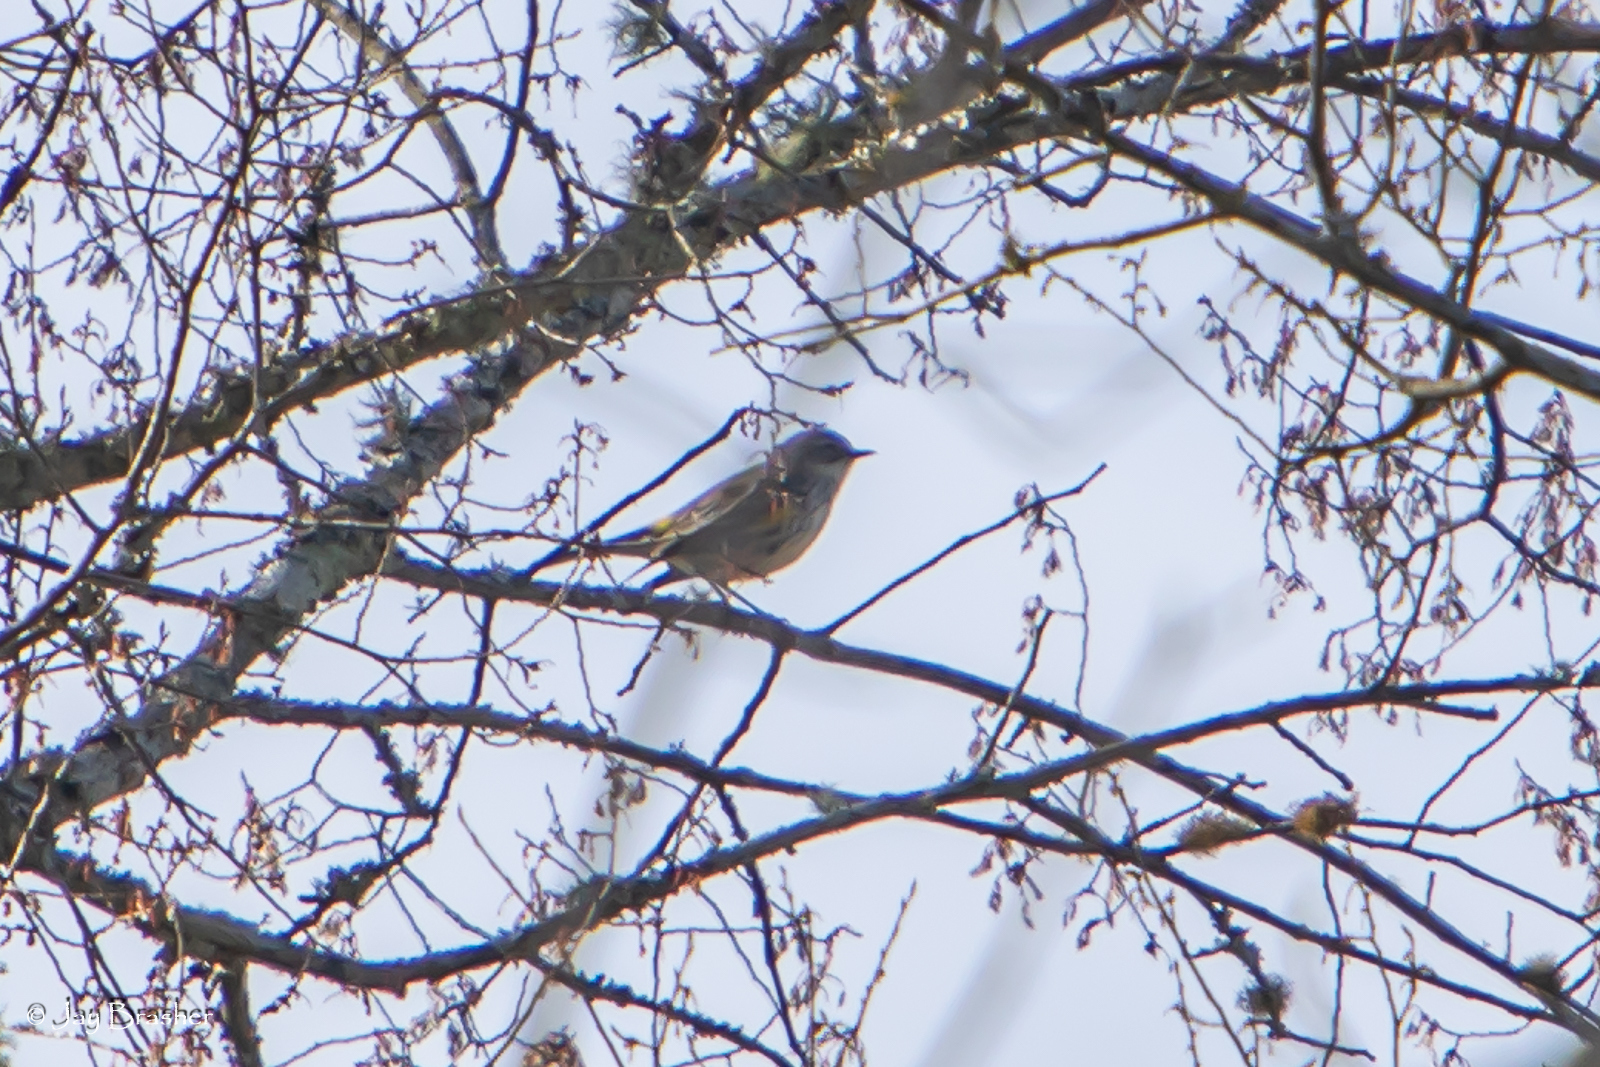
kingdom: Animalia
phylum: Chordata
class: Aves
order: Passeriformes
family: Parulidae
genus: Setophaga
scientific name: Setophaga coronata
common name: Myrtle warbler
